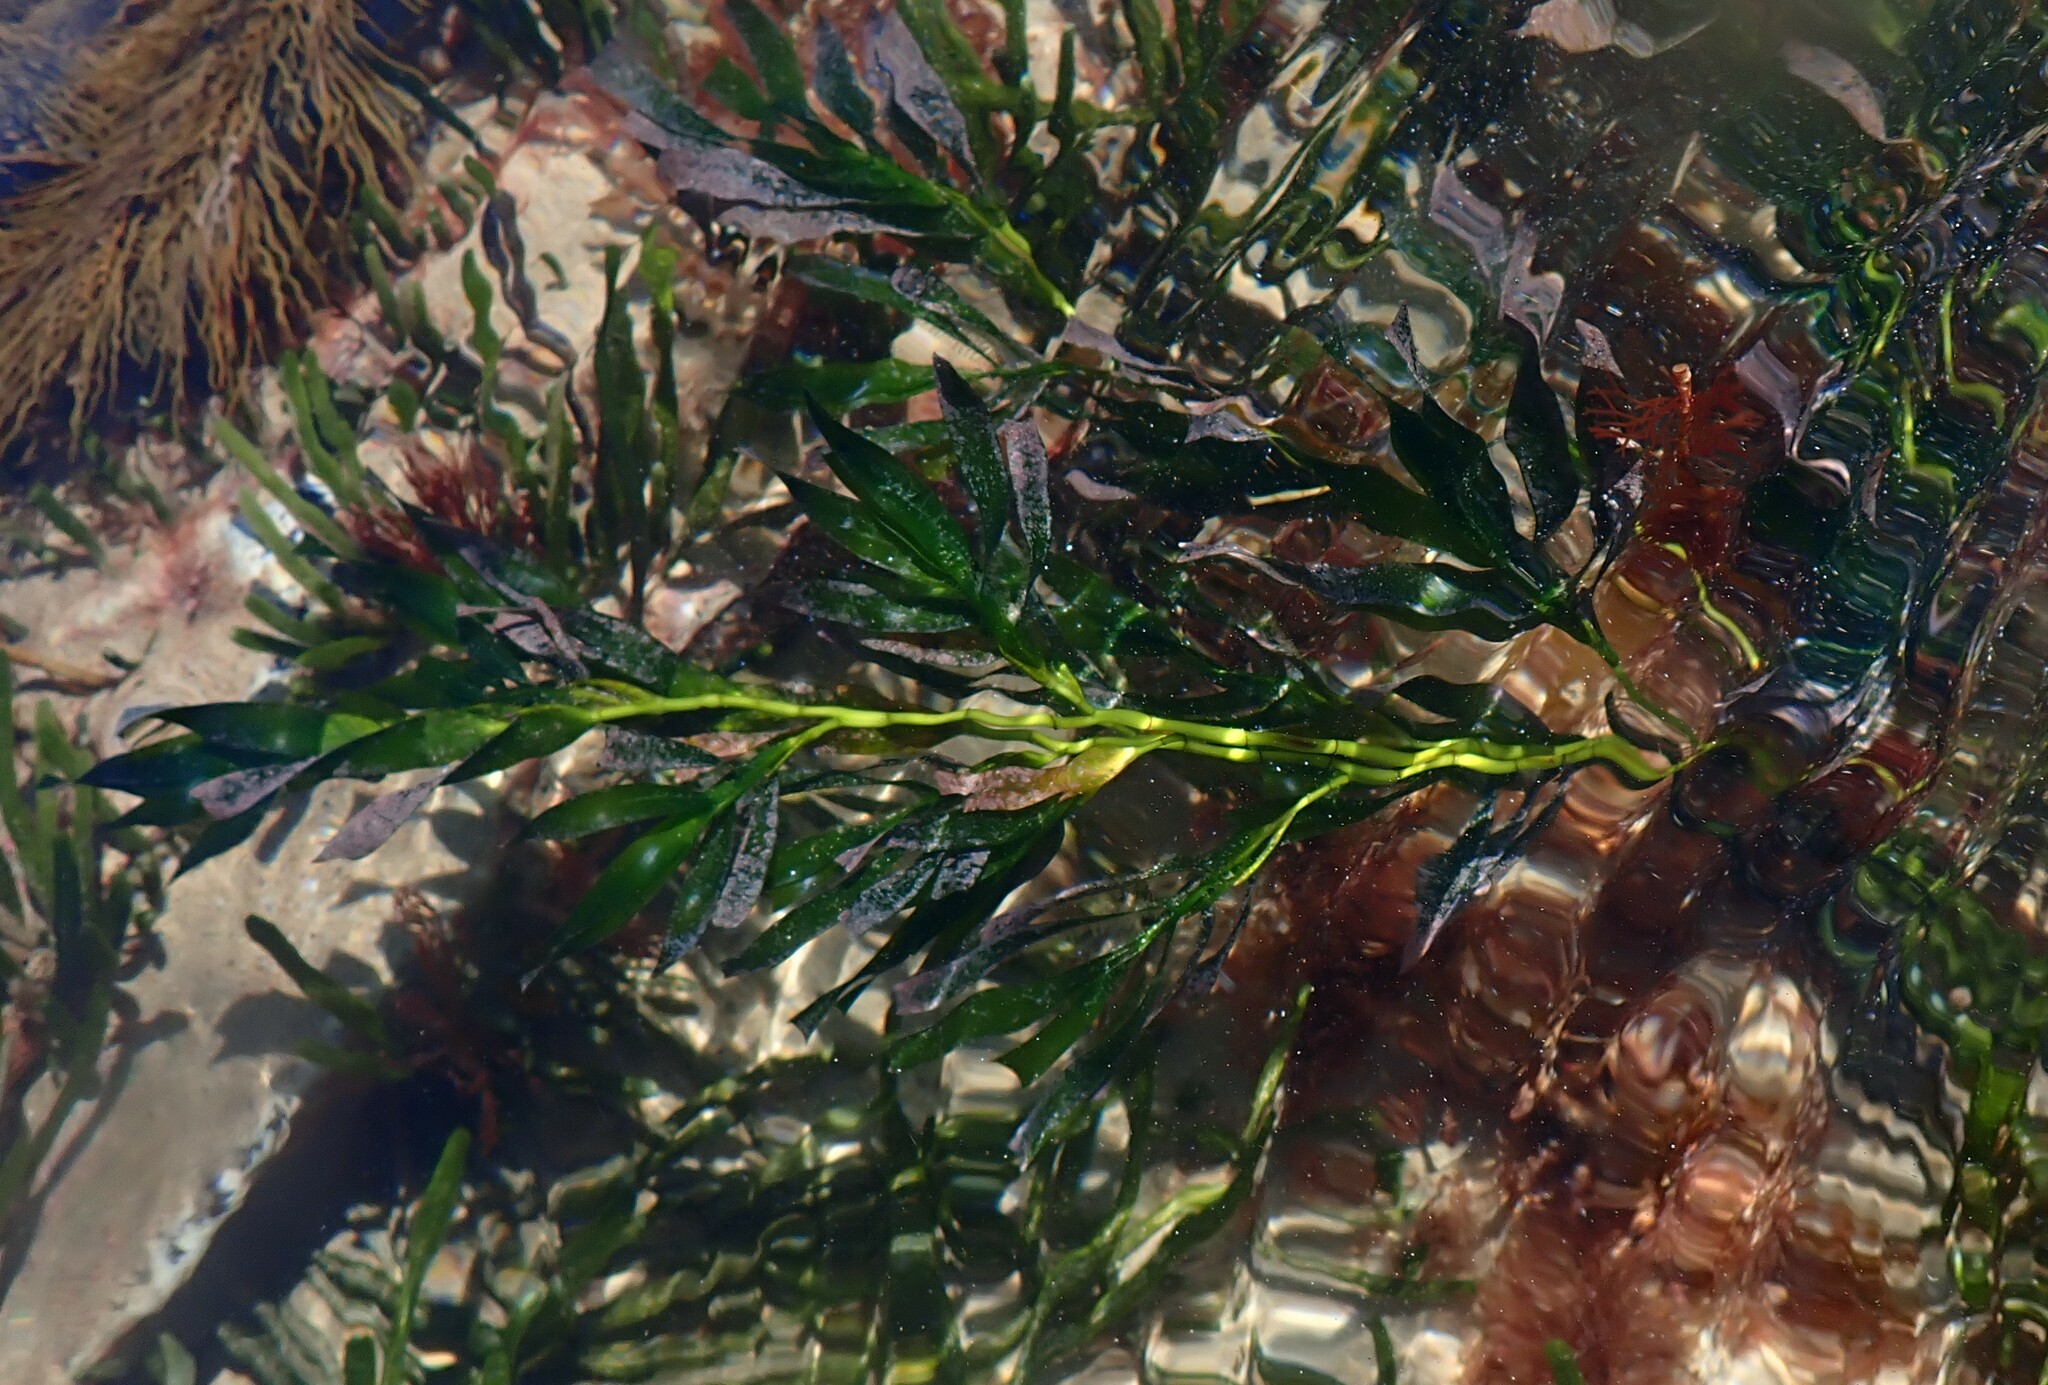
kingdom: Plantae
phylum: Tracheophyta
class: Liliopsida
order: Alismatales
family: Cymodoceaceae
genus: Amphibolis
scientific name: Amphibolis antarctica
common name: Species code: aa
